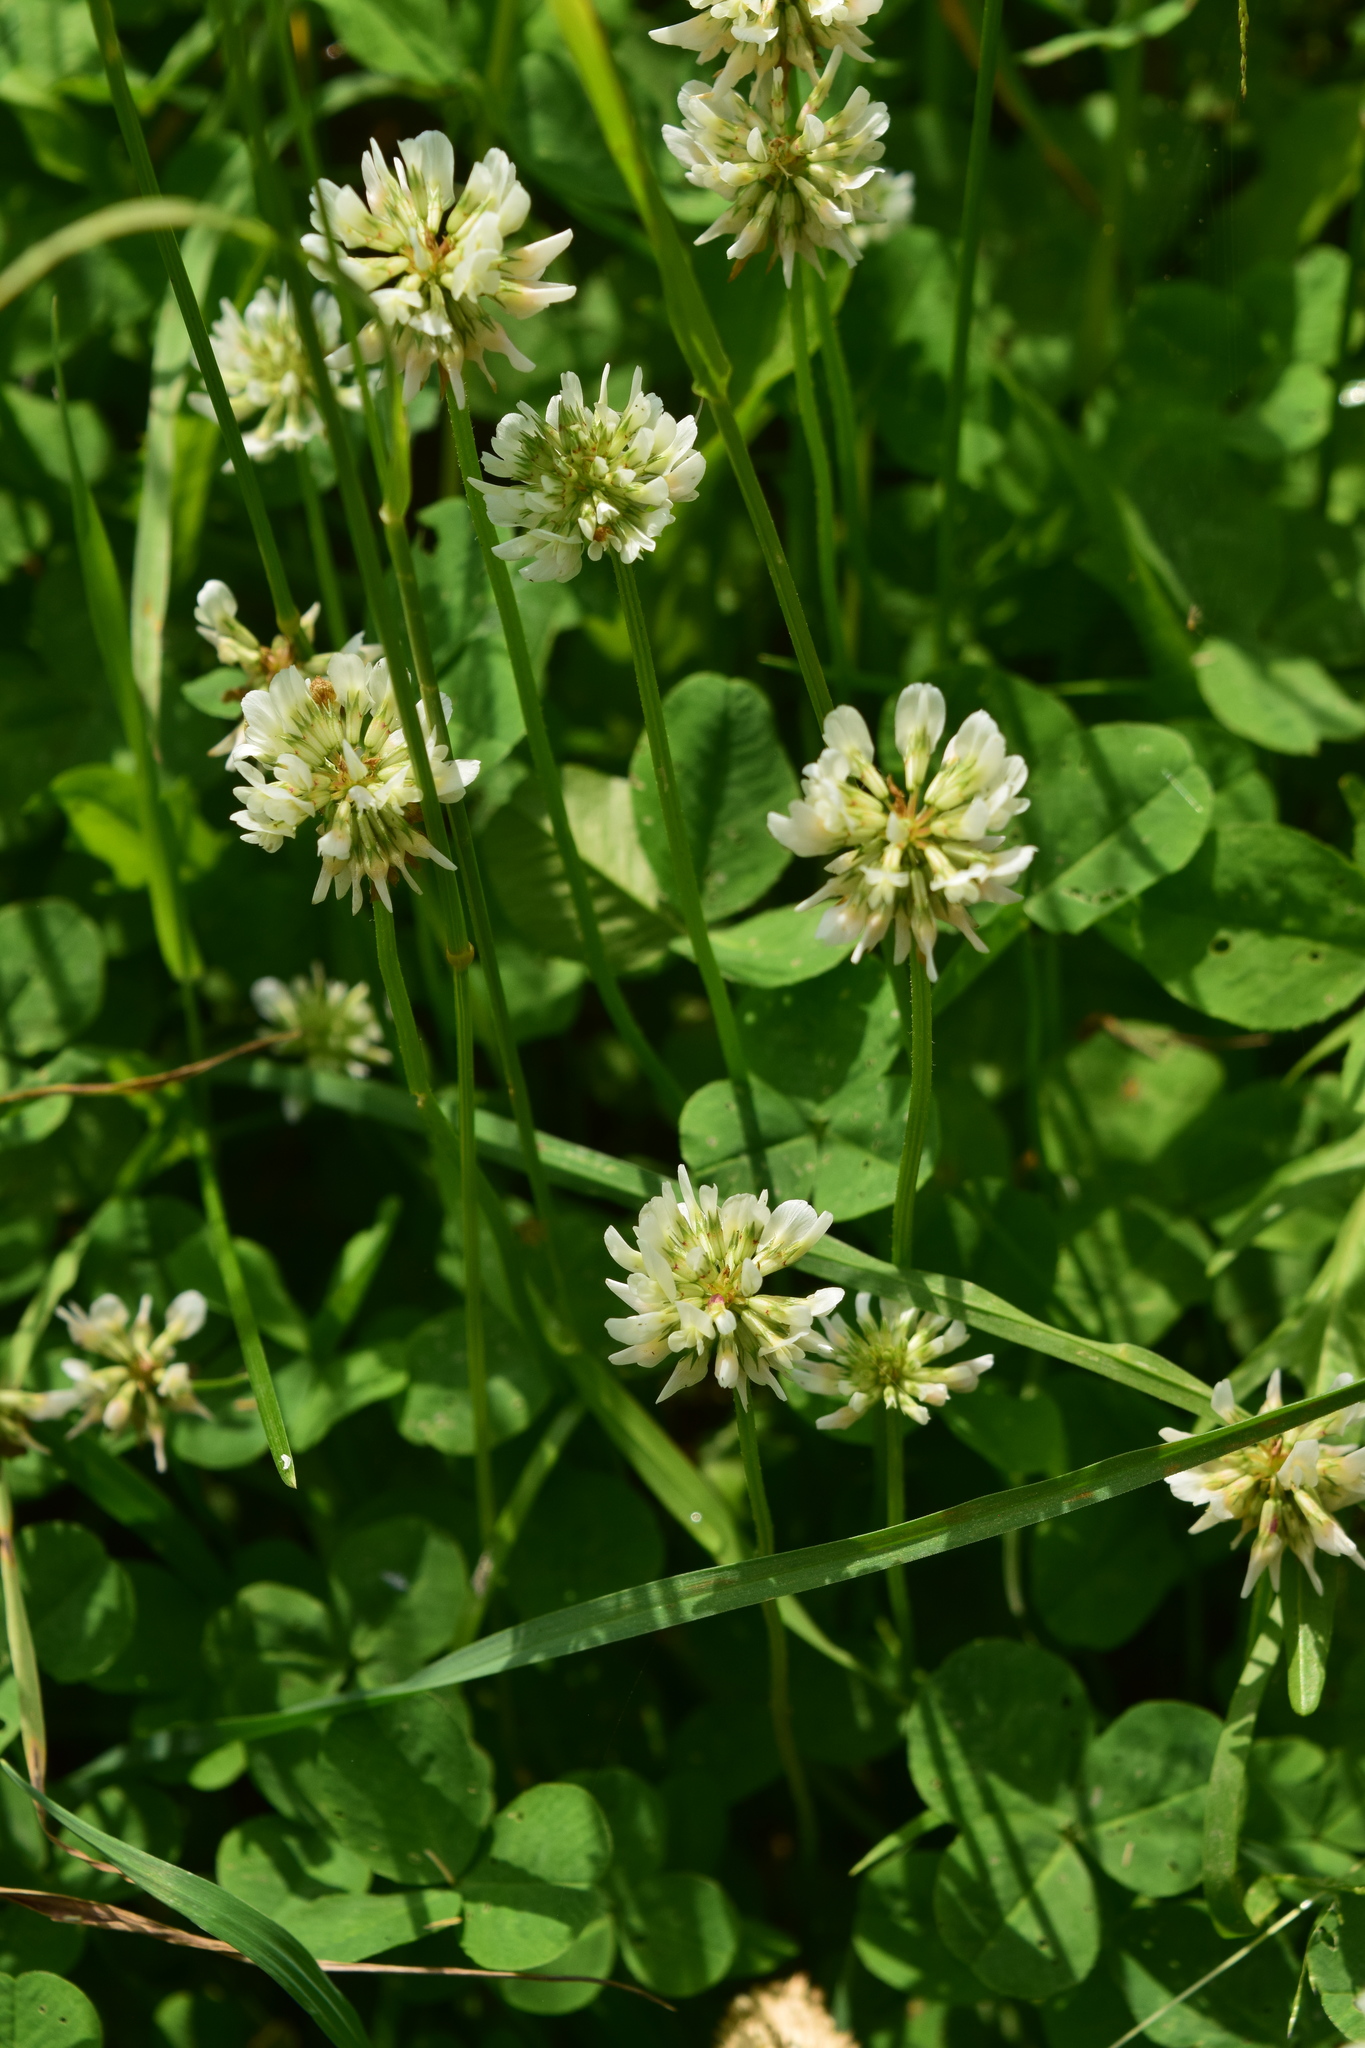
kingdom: Plantae
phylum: Tracheophyta
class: Magnoliopsida
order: Fabales
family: Fabaceae
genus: Trifolium
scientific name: Trifolium repens
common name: White clover
